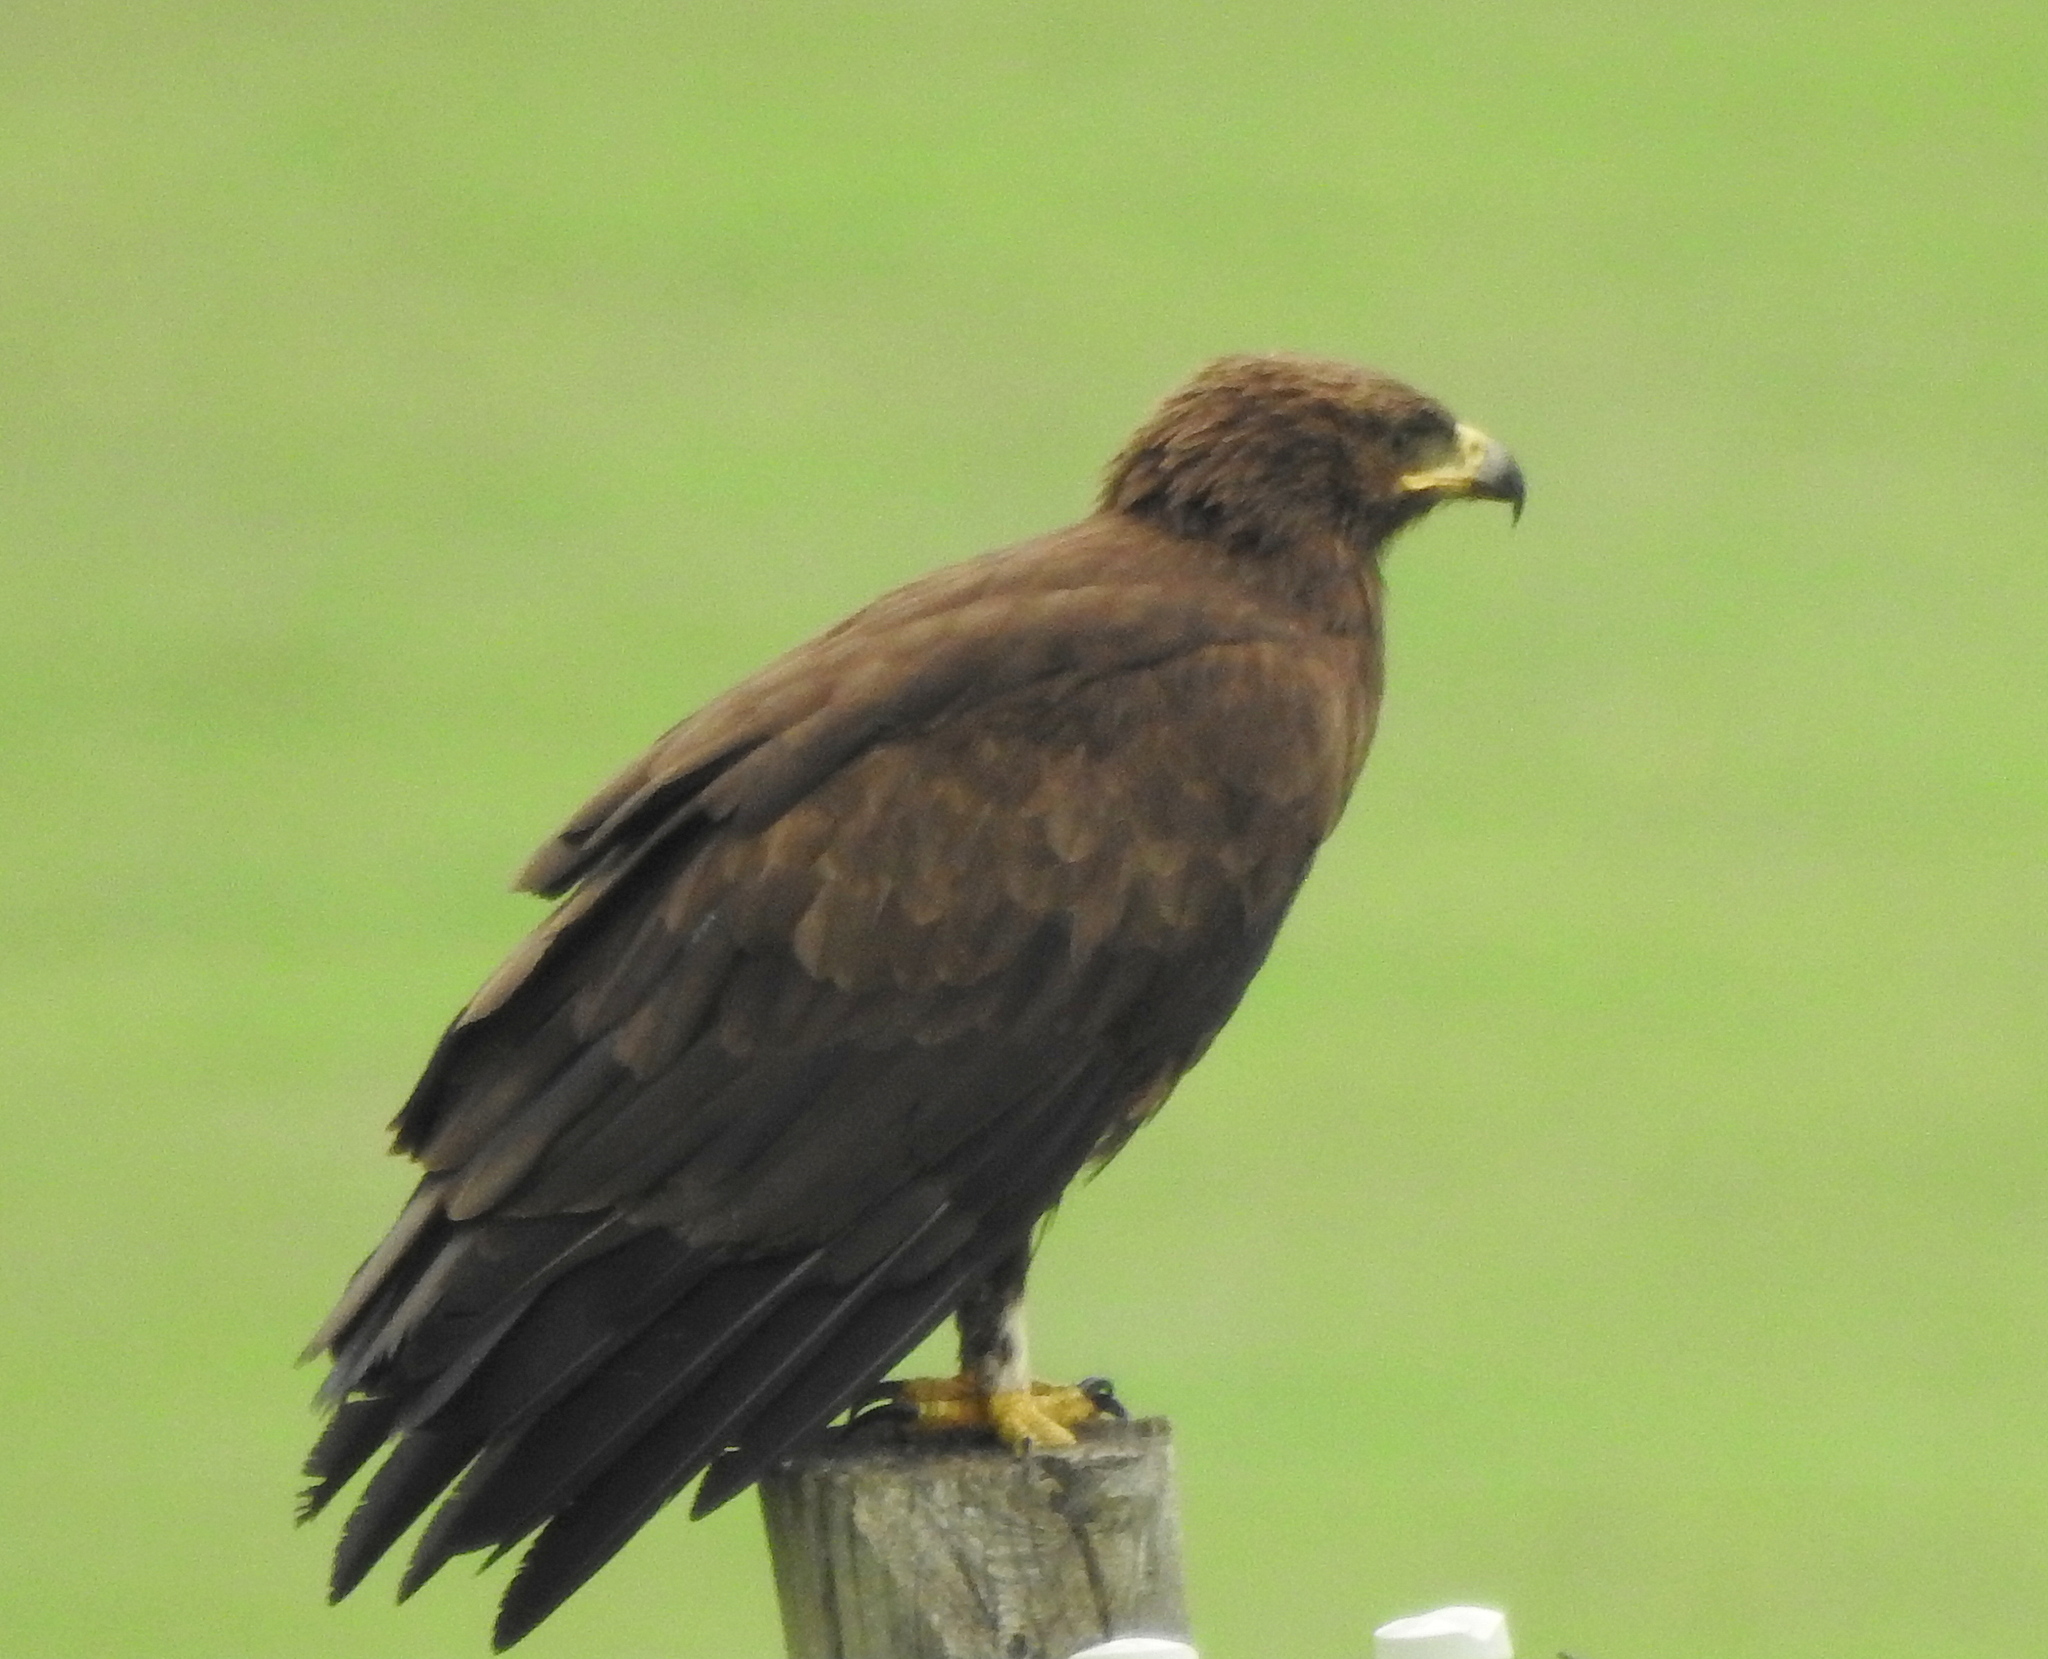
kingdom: Animalia
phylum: Chordata
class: Aves
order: Accipitriformes
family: Accipitridae
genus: Aquila
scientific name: Aquila clanga
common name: Greater spotted eagle
